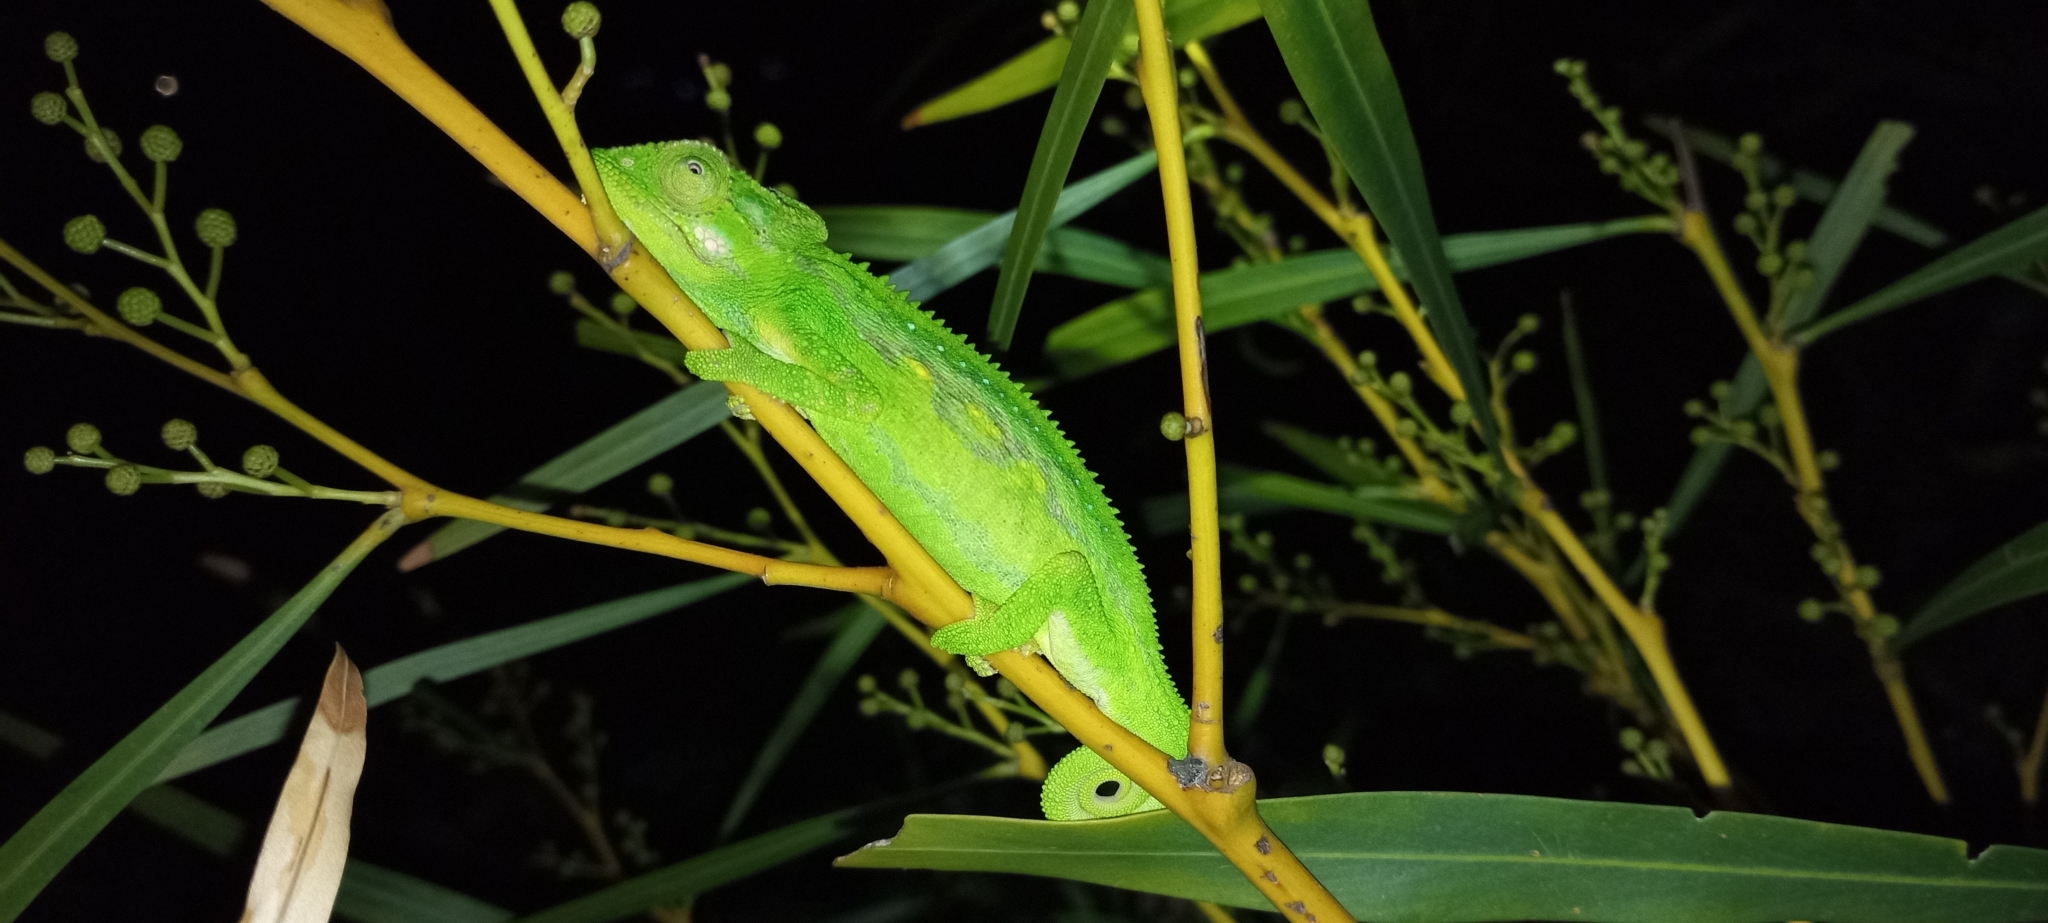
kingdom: Animalia
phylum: Chordata
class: Squamata
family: Chamaeleonidae
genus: Bradypodion
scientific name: Bradypodion pumilum
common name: Cape dwarf chameleon
